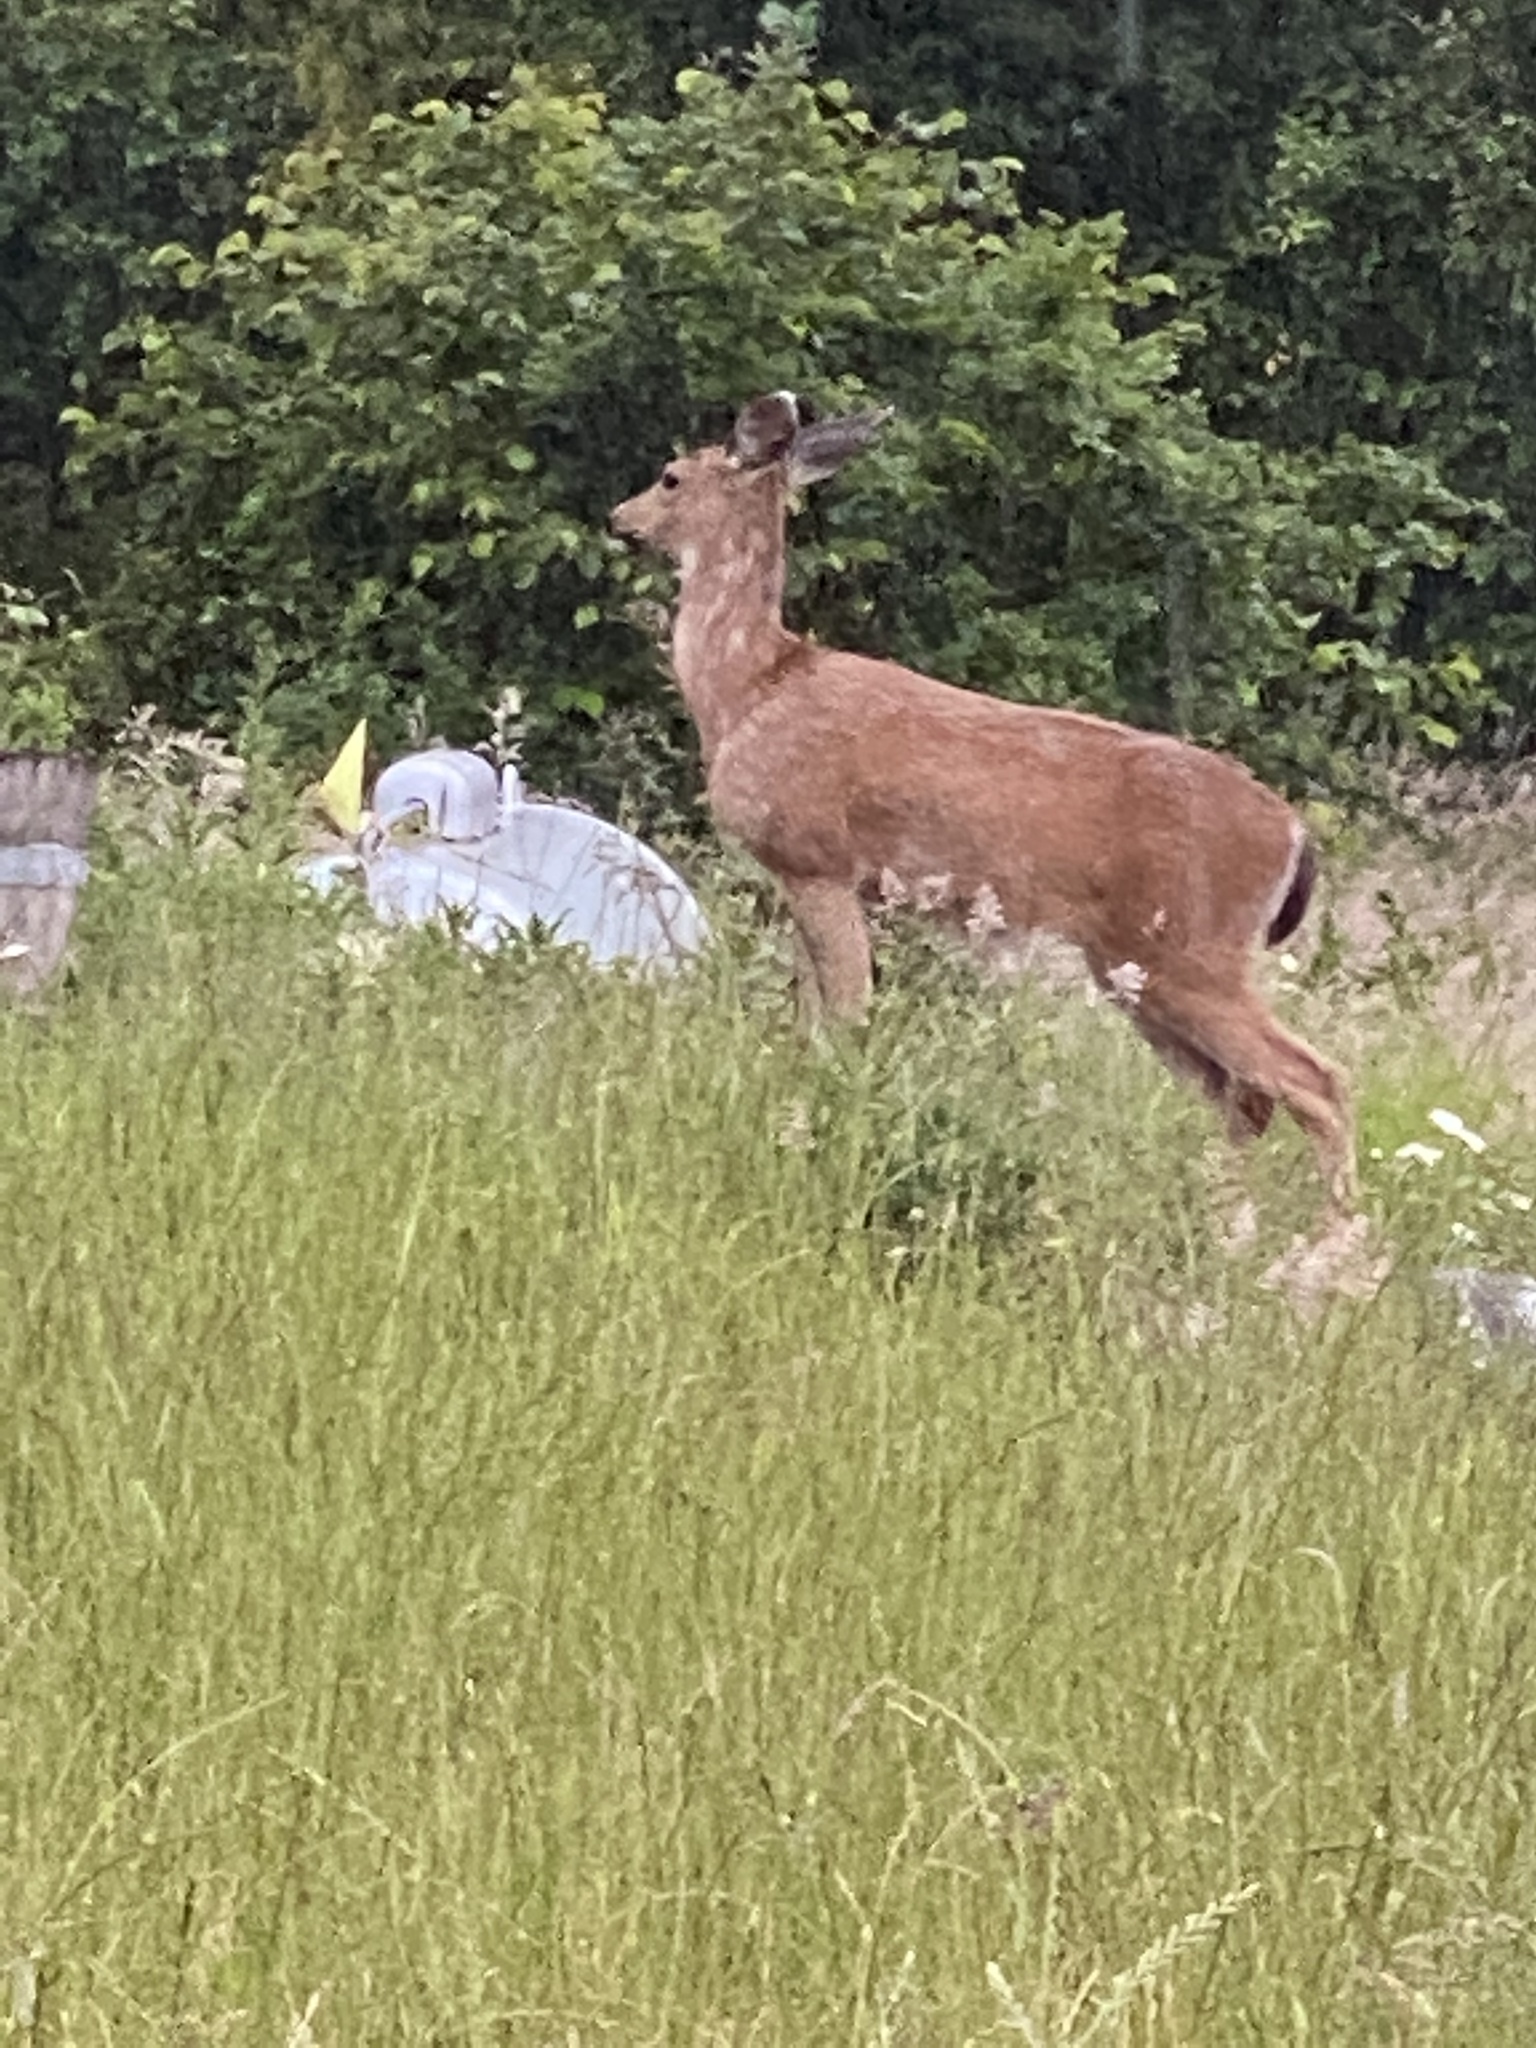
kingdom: Animalia
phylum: Chordata
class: Mammalia
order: Artiodactyla
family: Cervidae
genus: Odocoileus
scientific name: Odocoileus hemionus
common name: Mule deer
